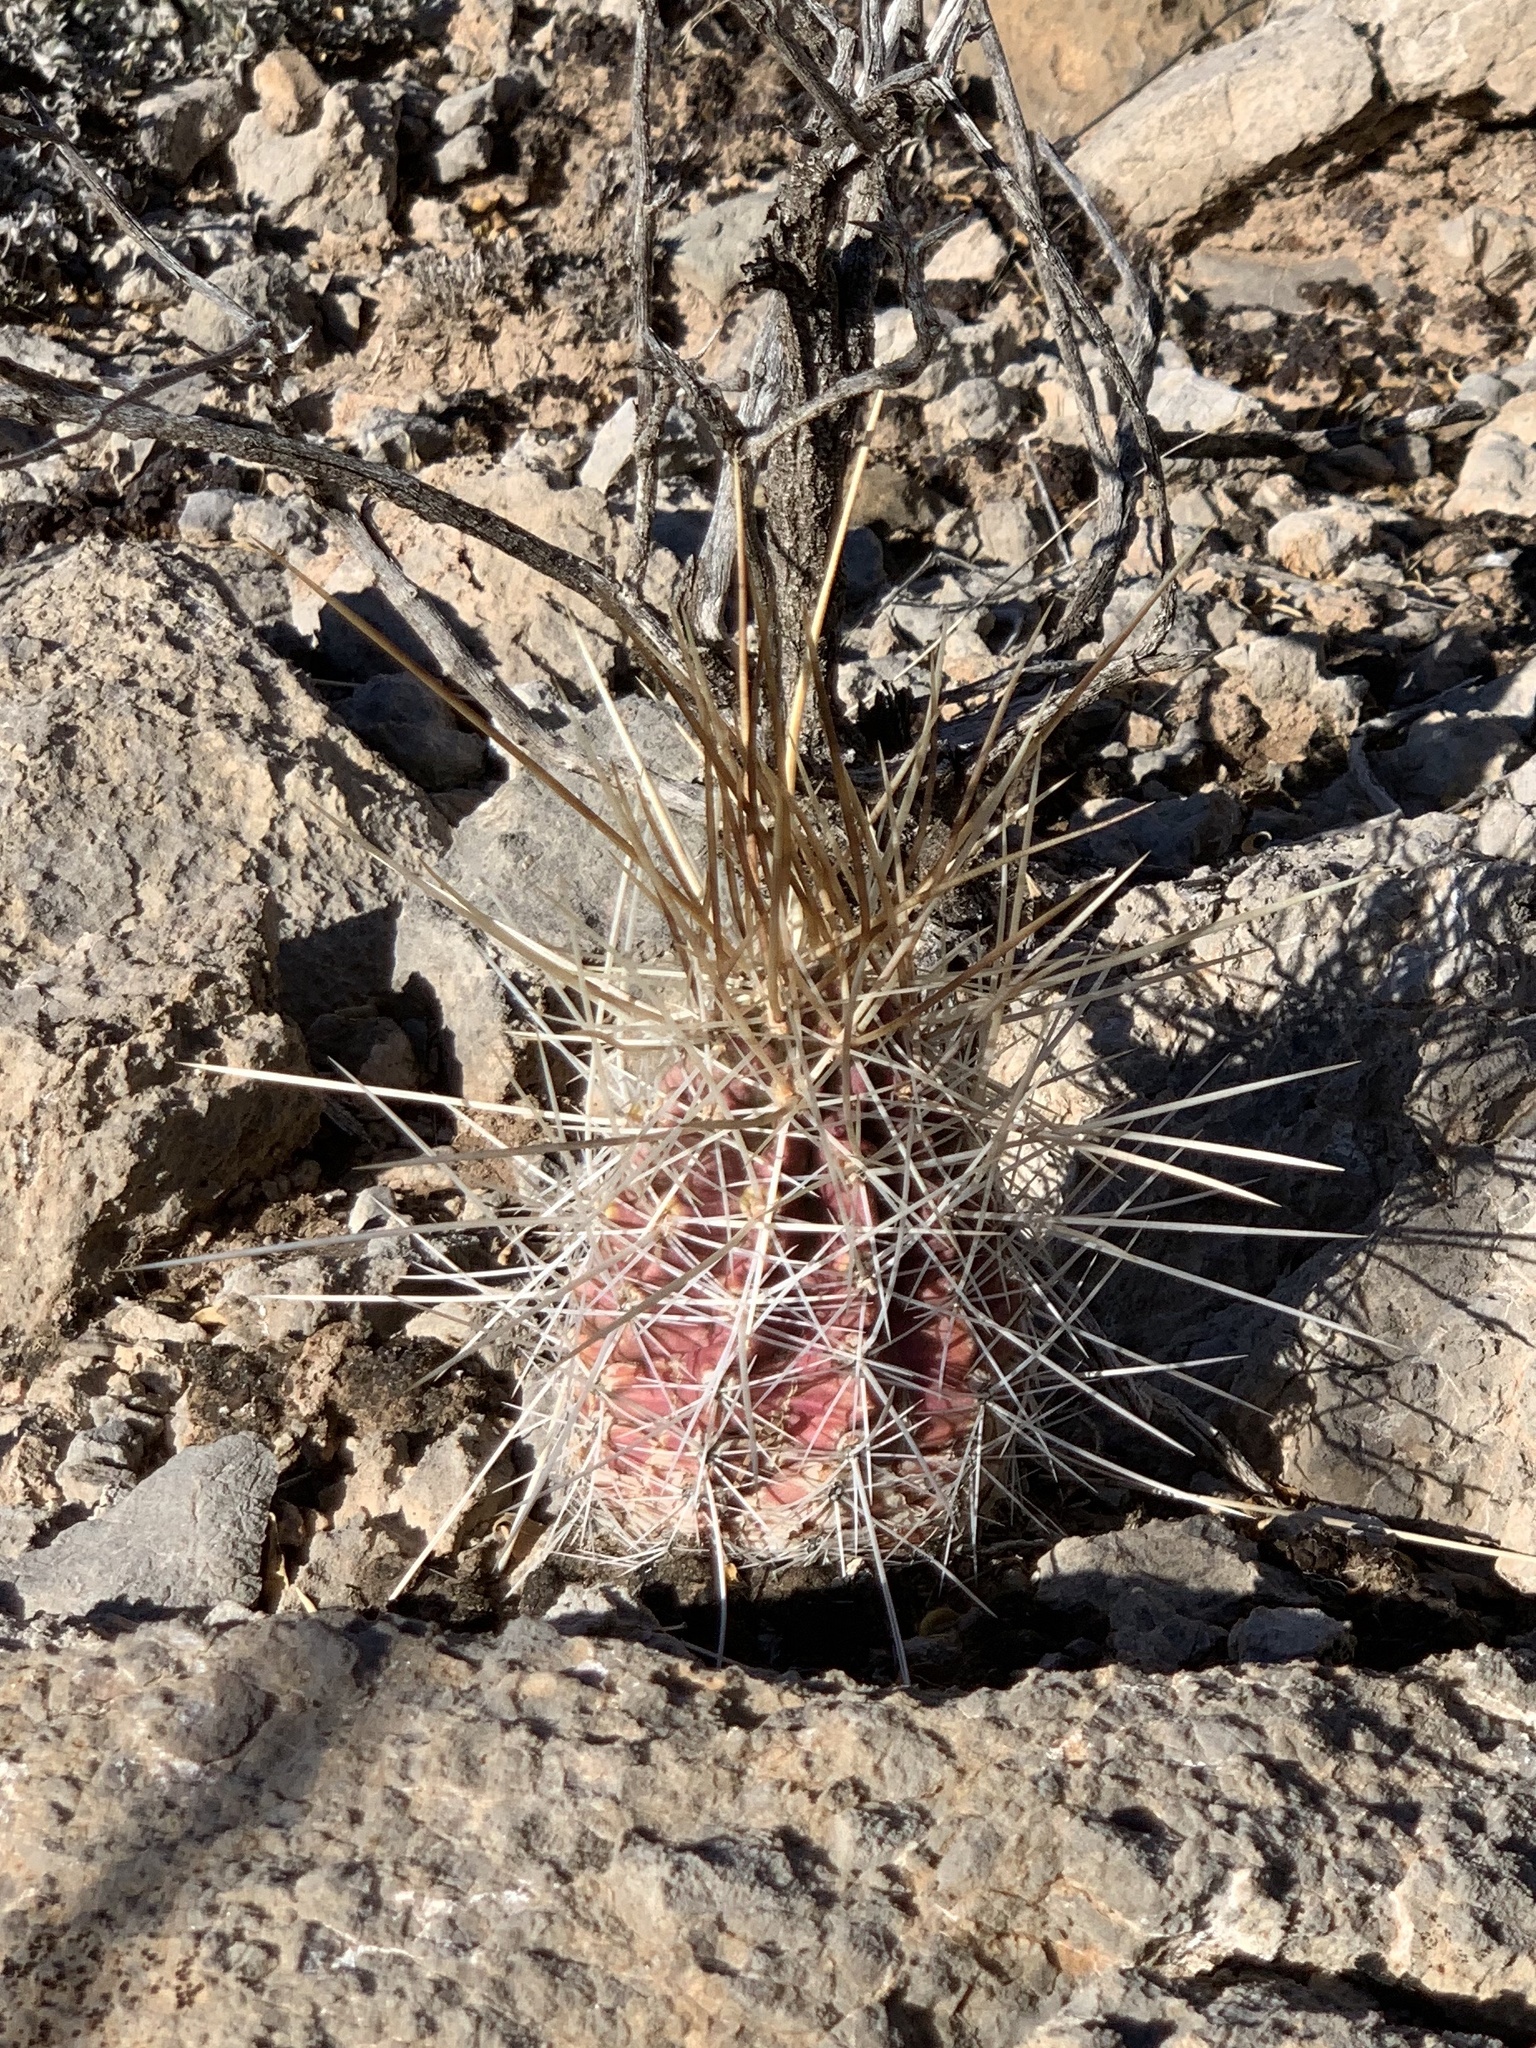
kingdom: Plantae
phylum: Tracheophyta
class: Magnoliopsida
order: Caryophyllales
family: Cactaceae
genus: Echinocereus
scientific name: Echinocereus stramineus
